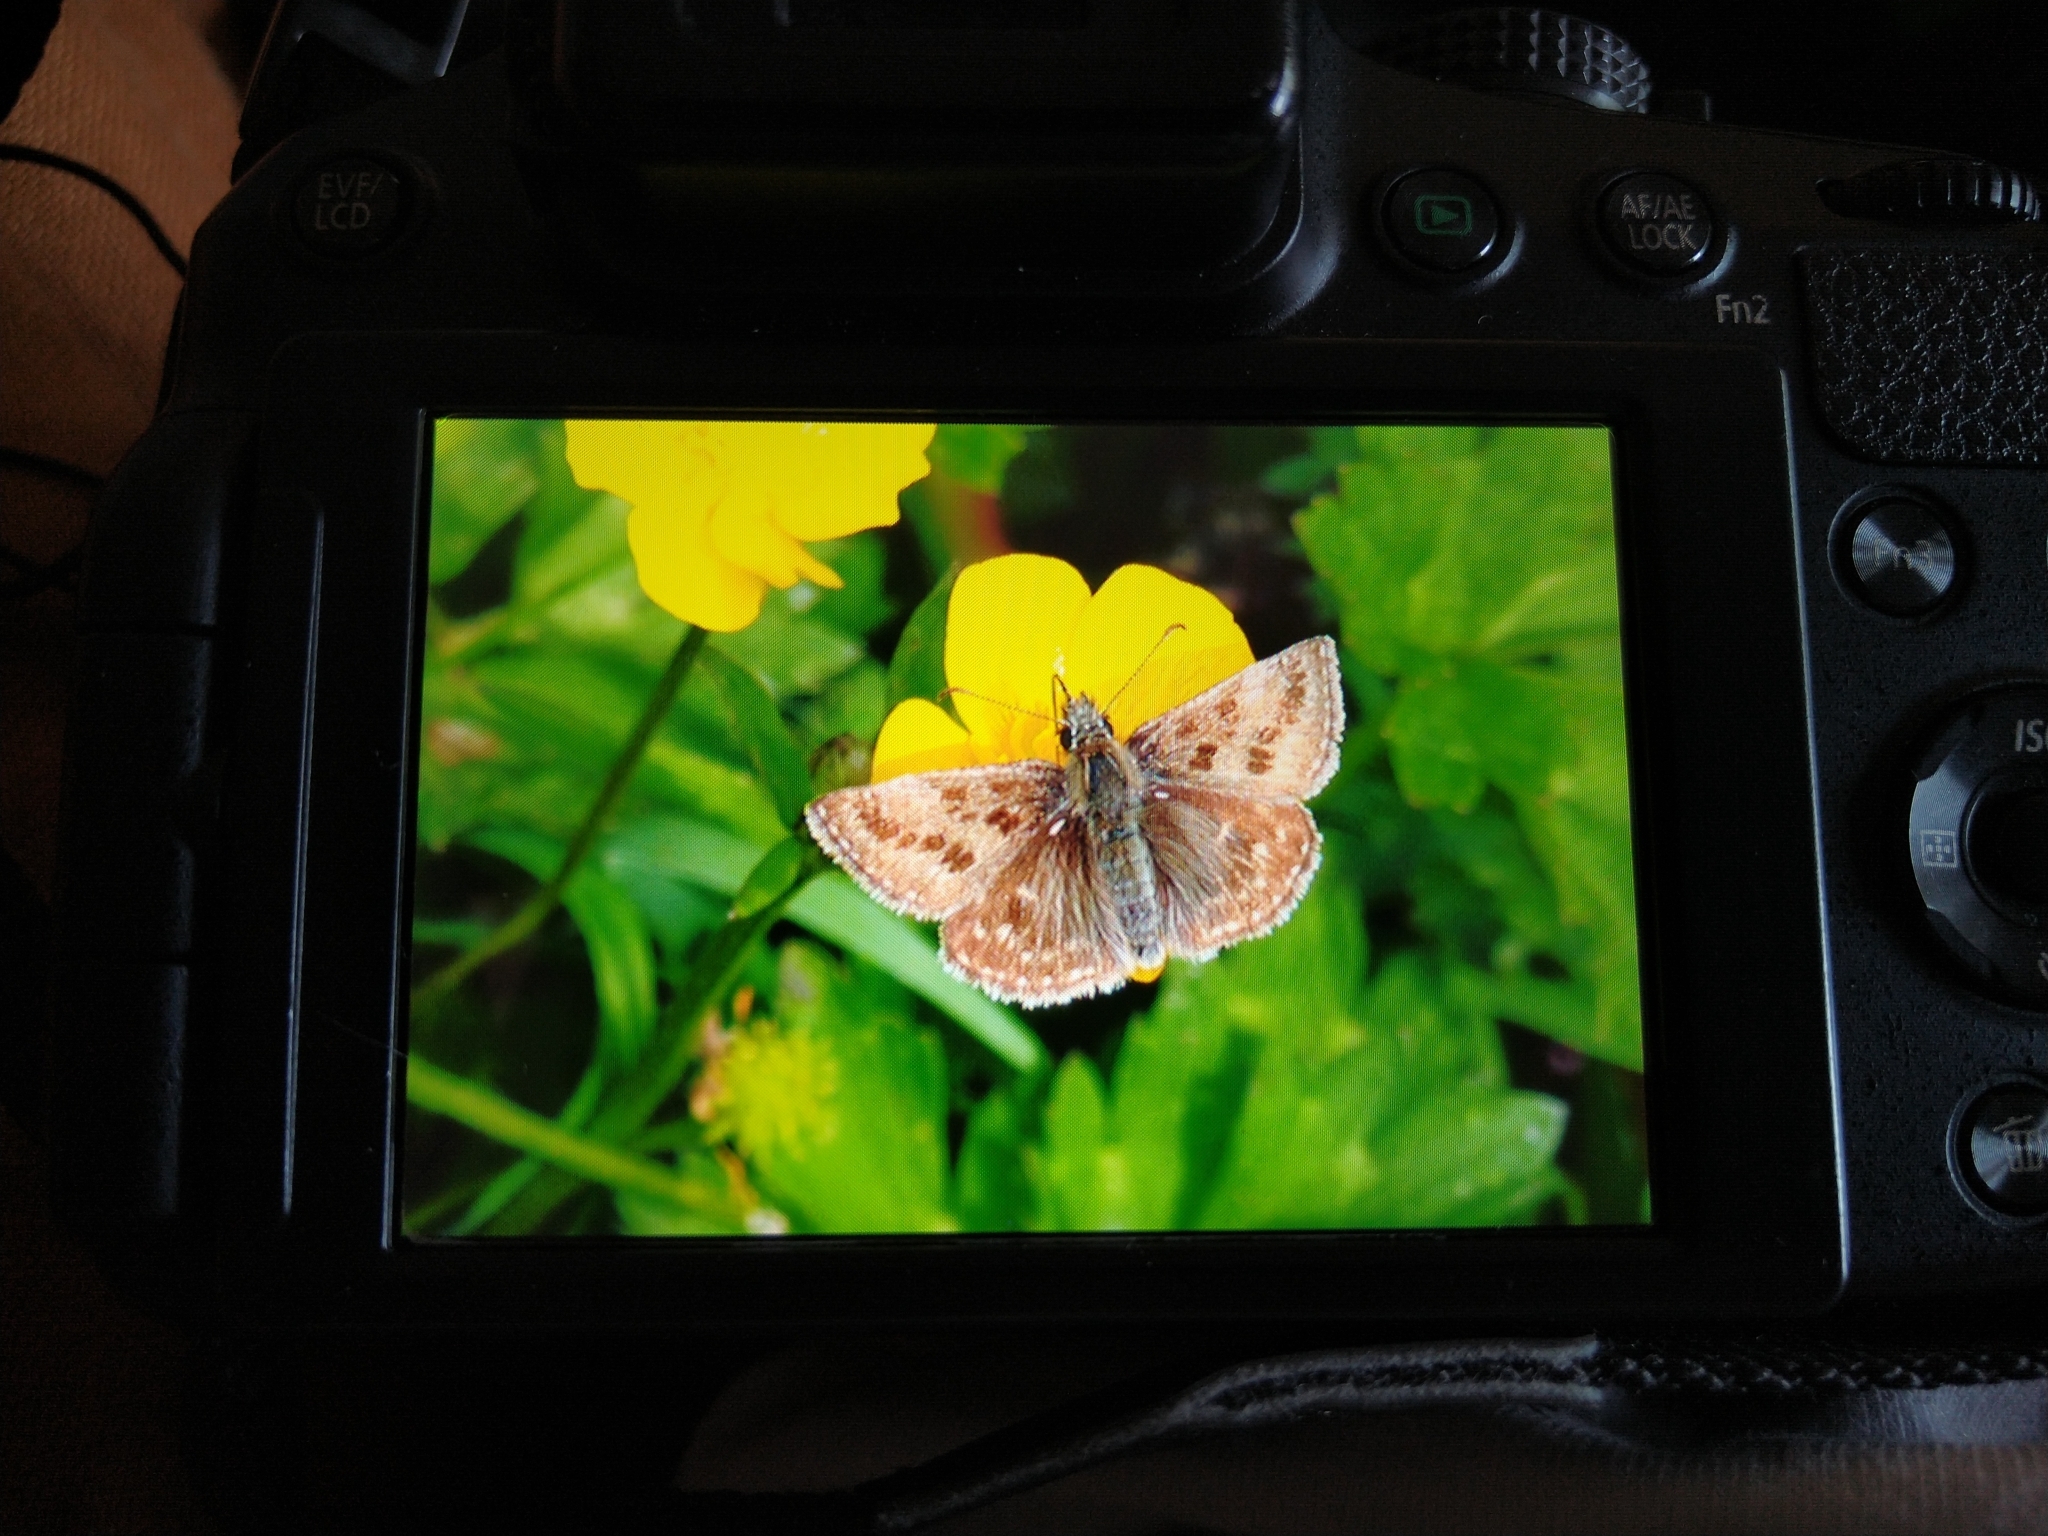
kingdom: Animalia
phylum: Arthropoda
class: Insecta
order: Lepidoptera
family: Hesperiidae
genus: Erynnis
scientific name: Erynnis tages
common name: Dingy skipper
